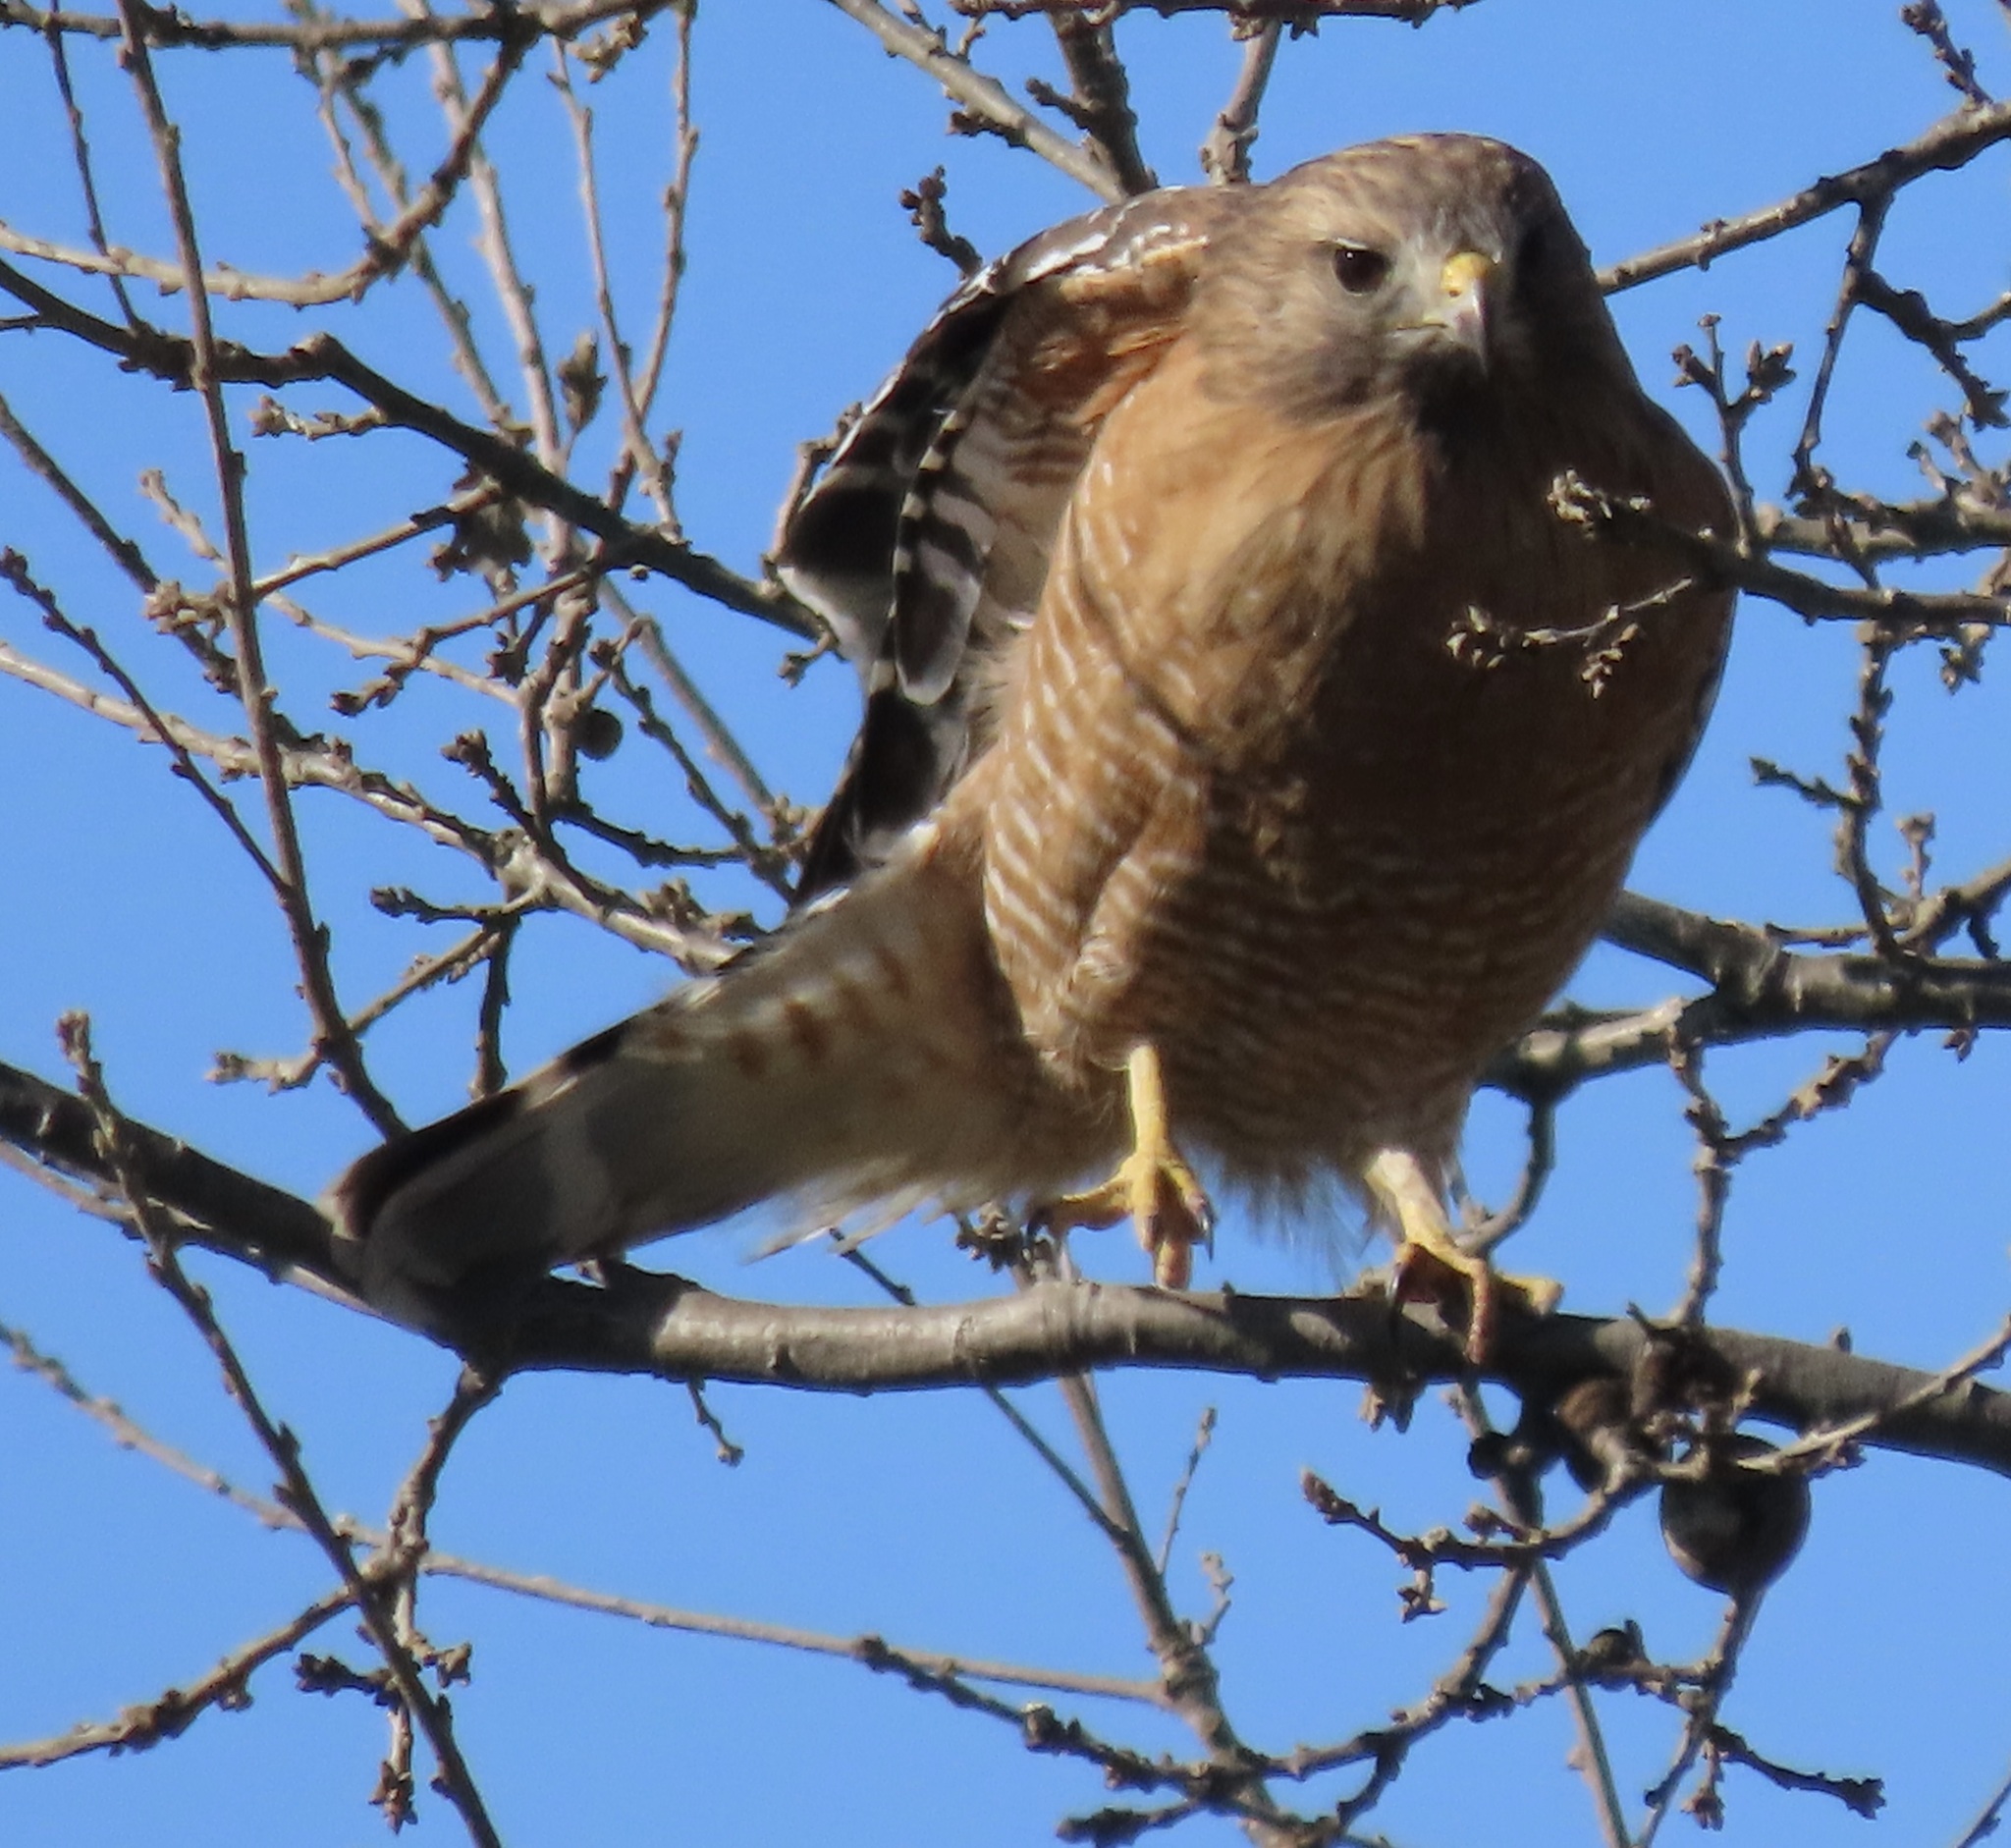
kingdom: Animalia
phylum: Chordata
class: Aves
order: Accipitriformes
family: Accipitridae
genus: Buteo
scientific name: Buteo lineatus
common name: Red-shouldered hawk
